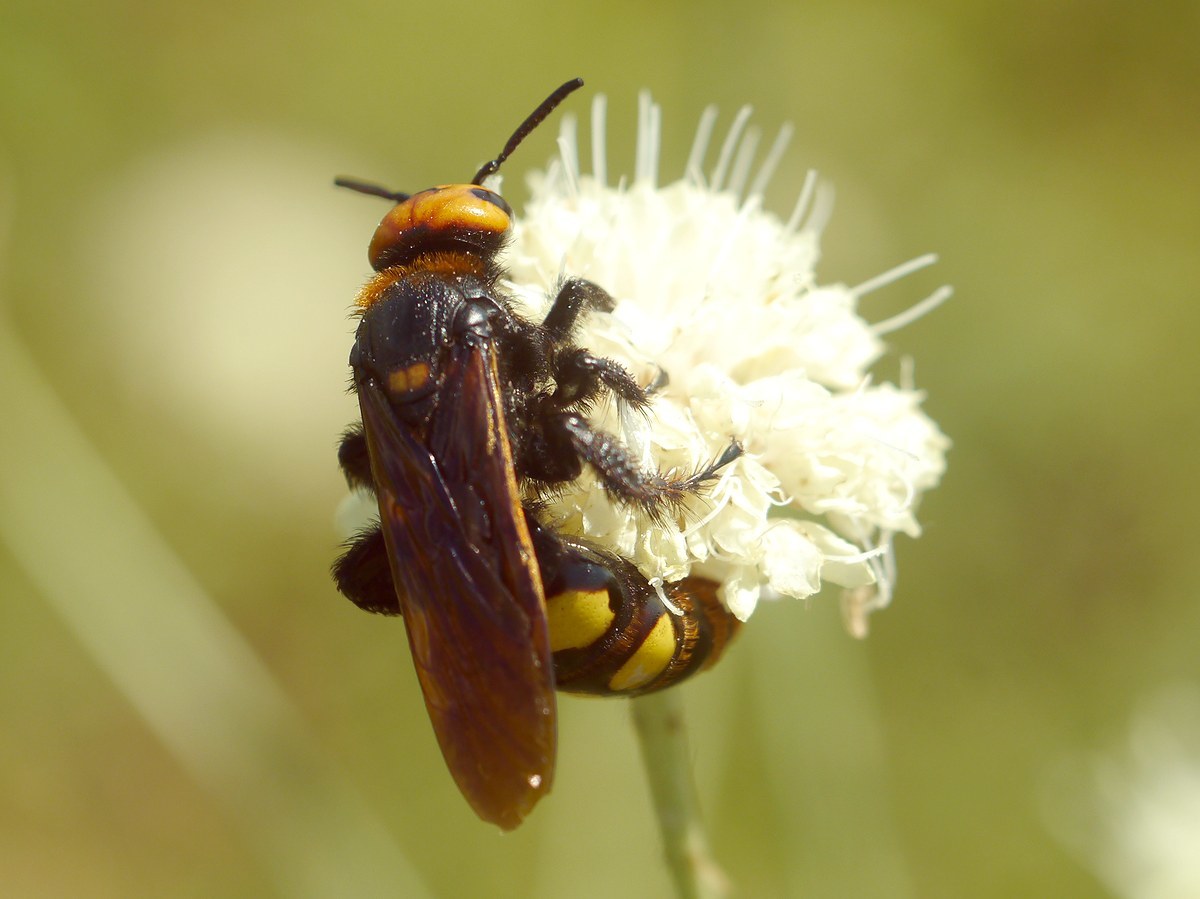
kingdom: Animalia
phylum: Arthropoda
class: Insecta
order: Hymenoptera
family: Scoliidae
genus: Megascolia
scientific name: Megascolia maculata
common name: Mammoth wasp
